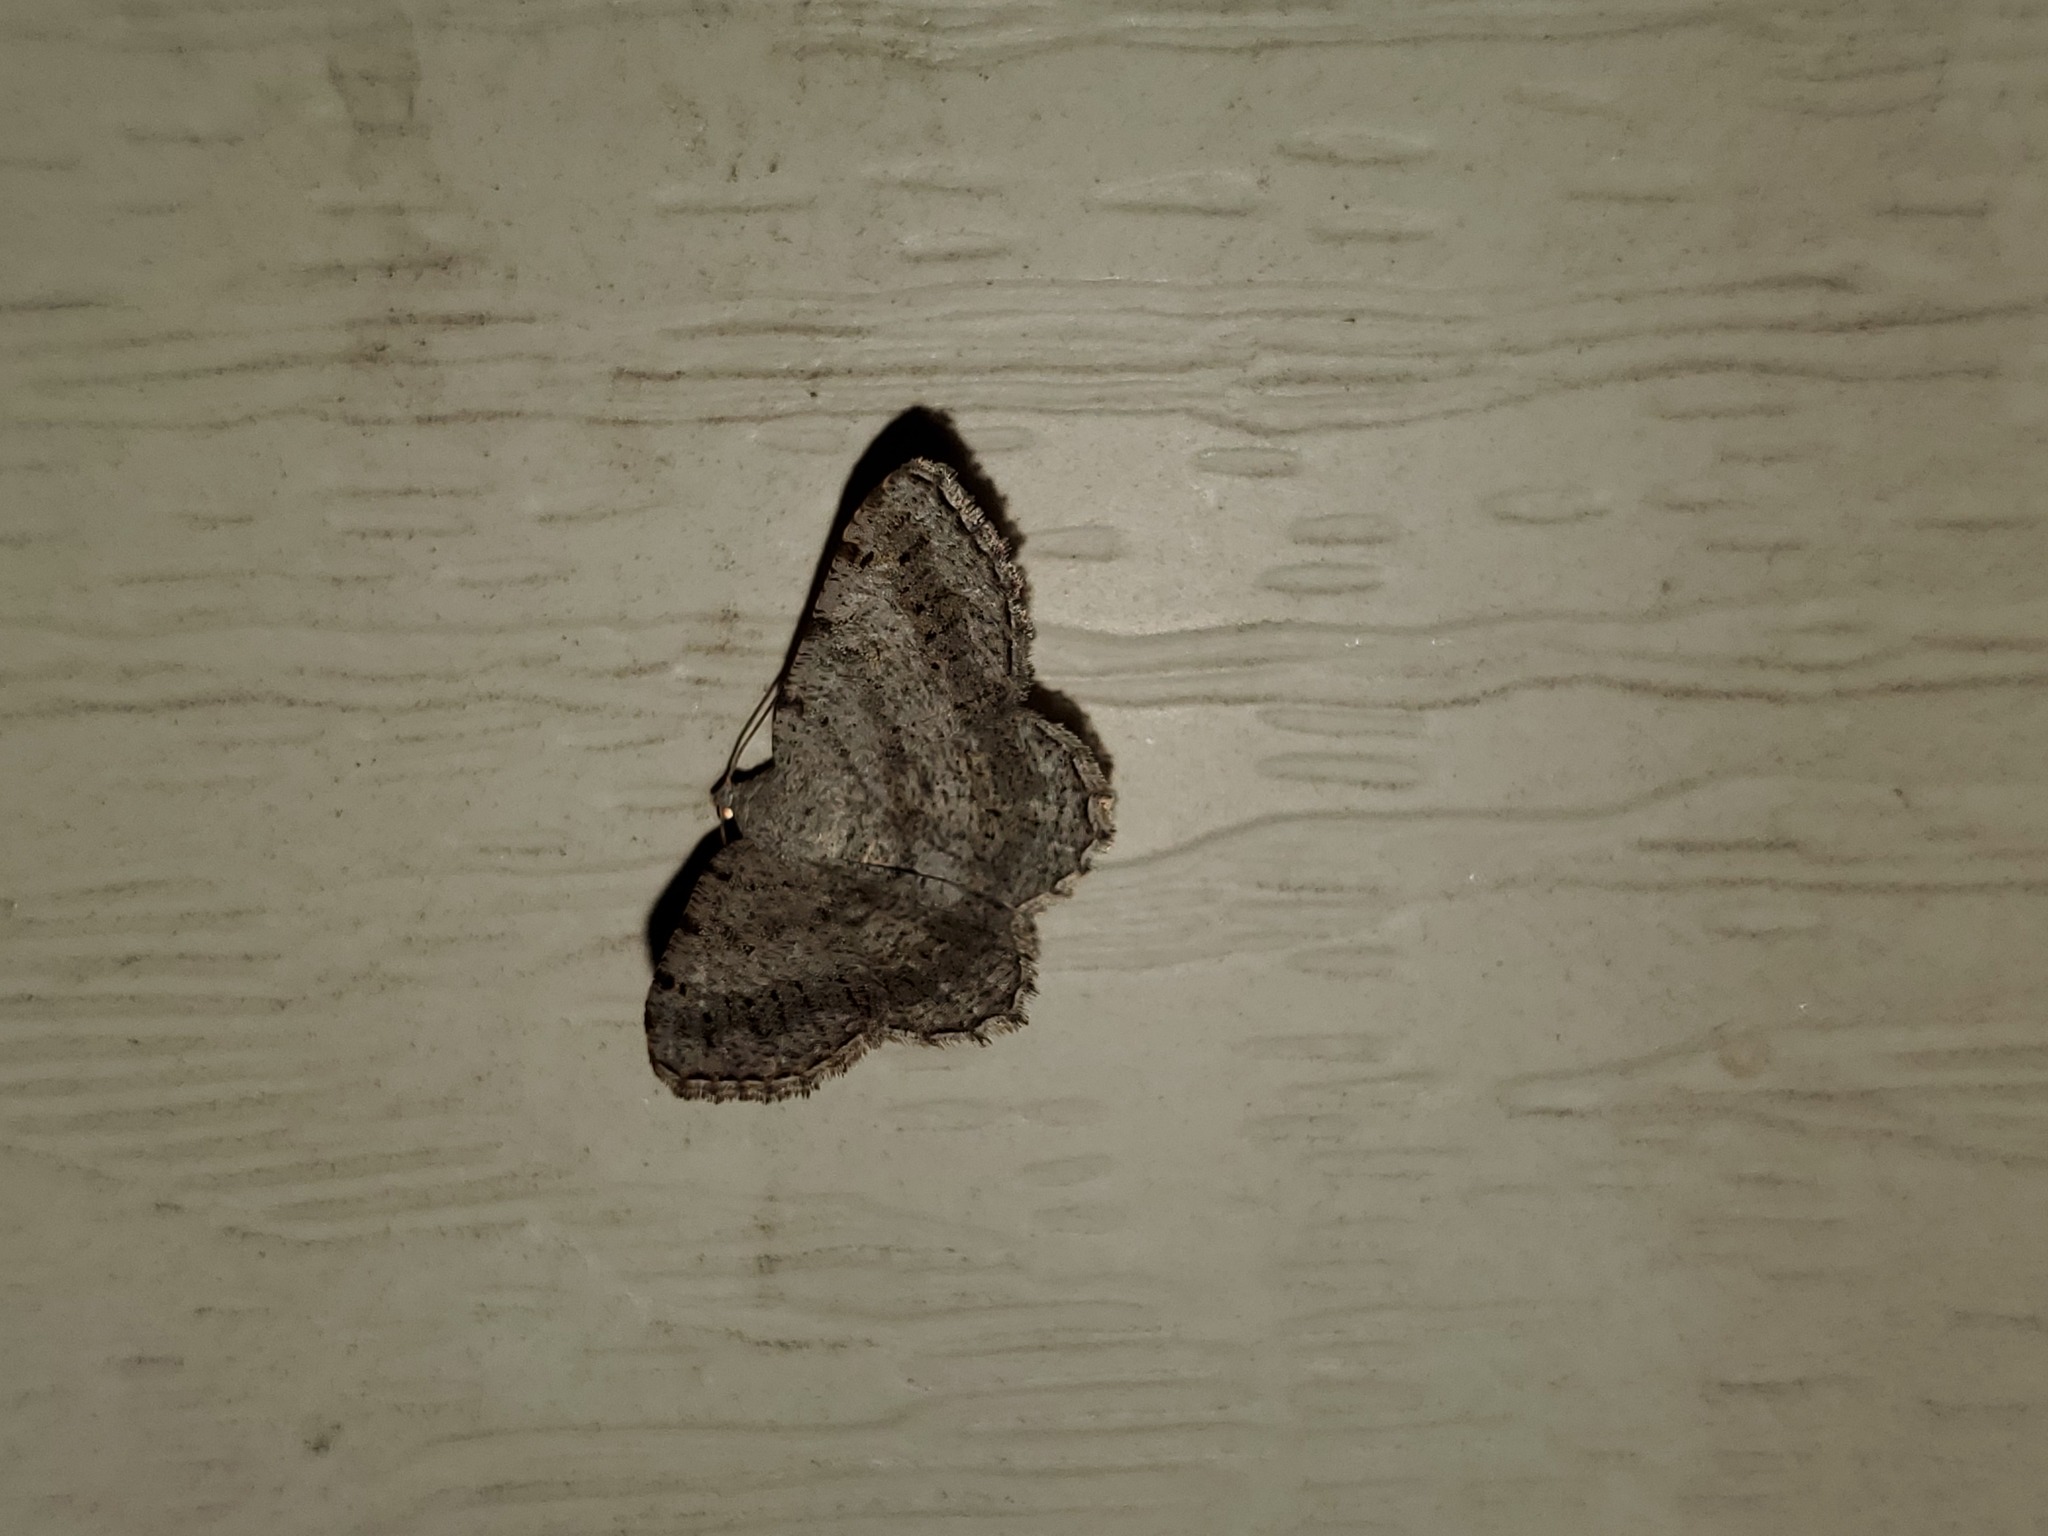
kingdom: Animalia
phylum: Arthropoda
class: Insecta
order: Lepidoptera
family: Geometridae
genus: Digrammia
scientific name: Digrammia ocellinata
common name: Faint-spotted angle
